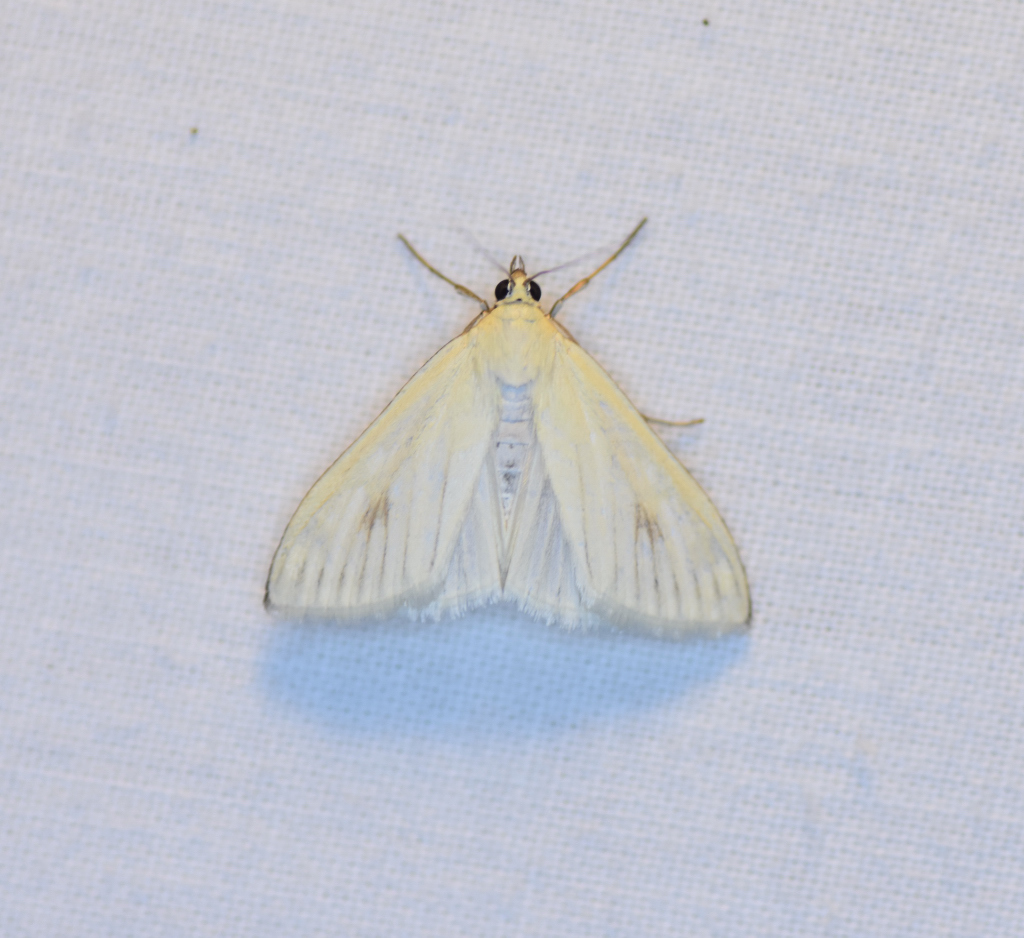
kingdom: Animalia
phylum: Arthropoda
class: Insecta
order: Lepidoptera
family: Crambidae
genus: Sitochroa
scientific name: Sitochroa palealis
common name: Greenish-yellow sitochroa moth
